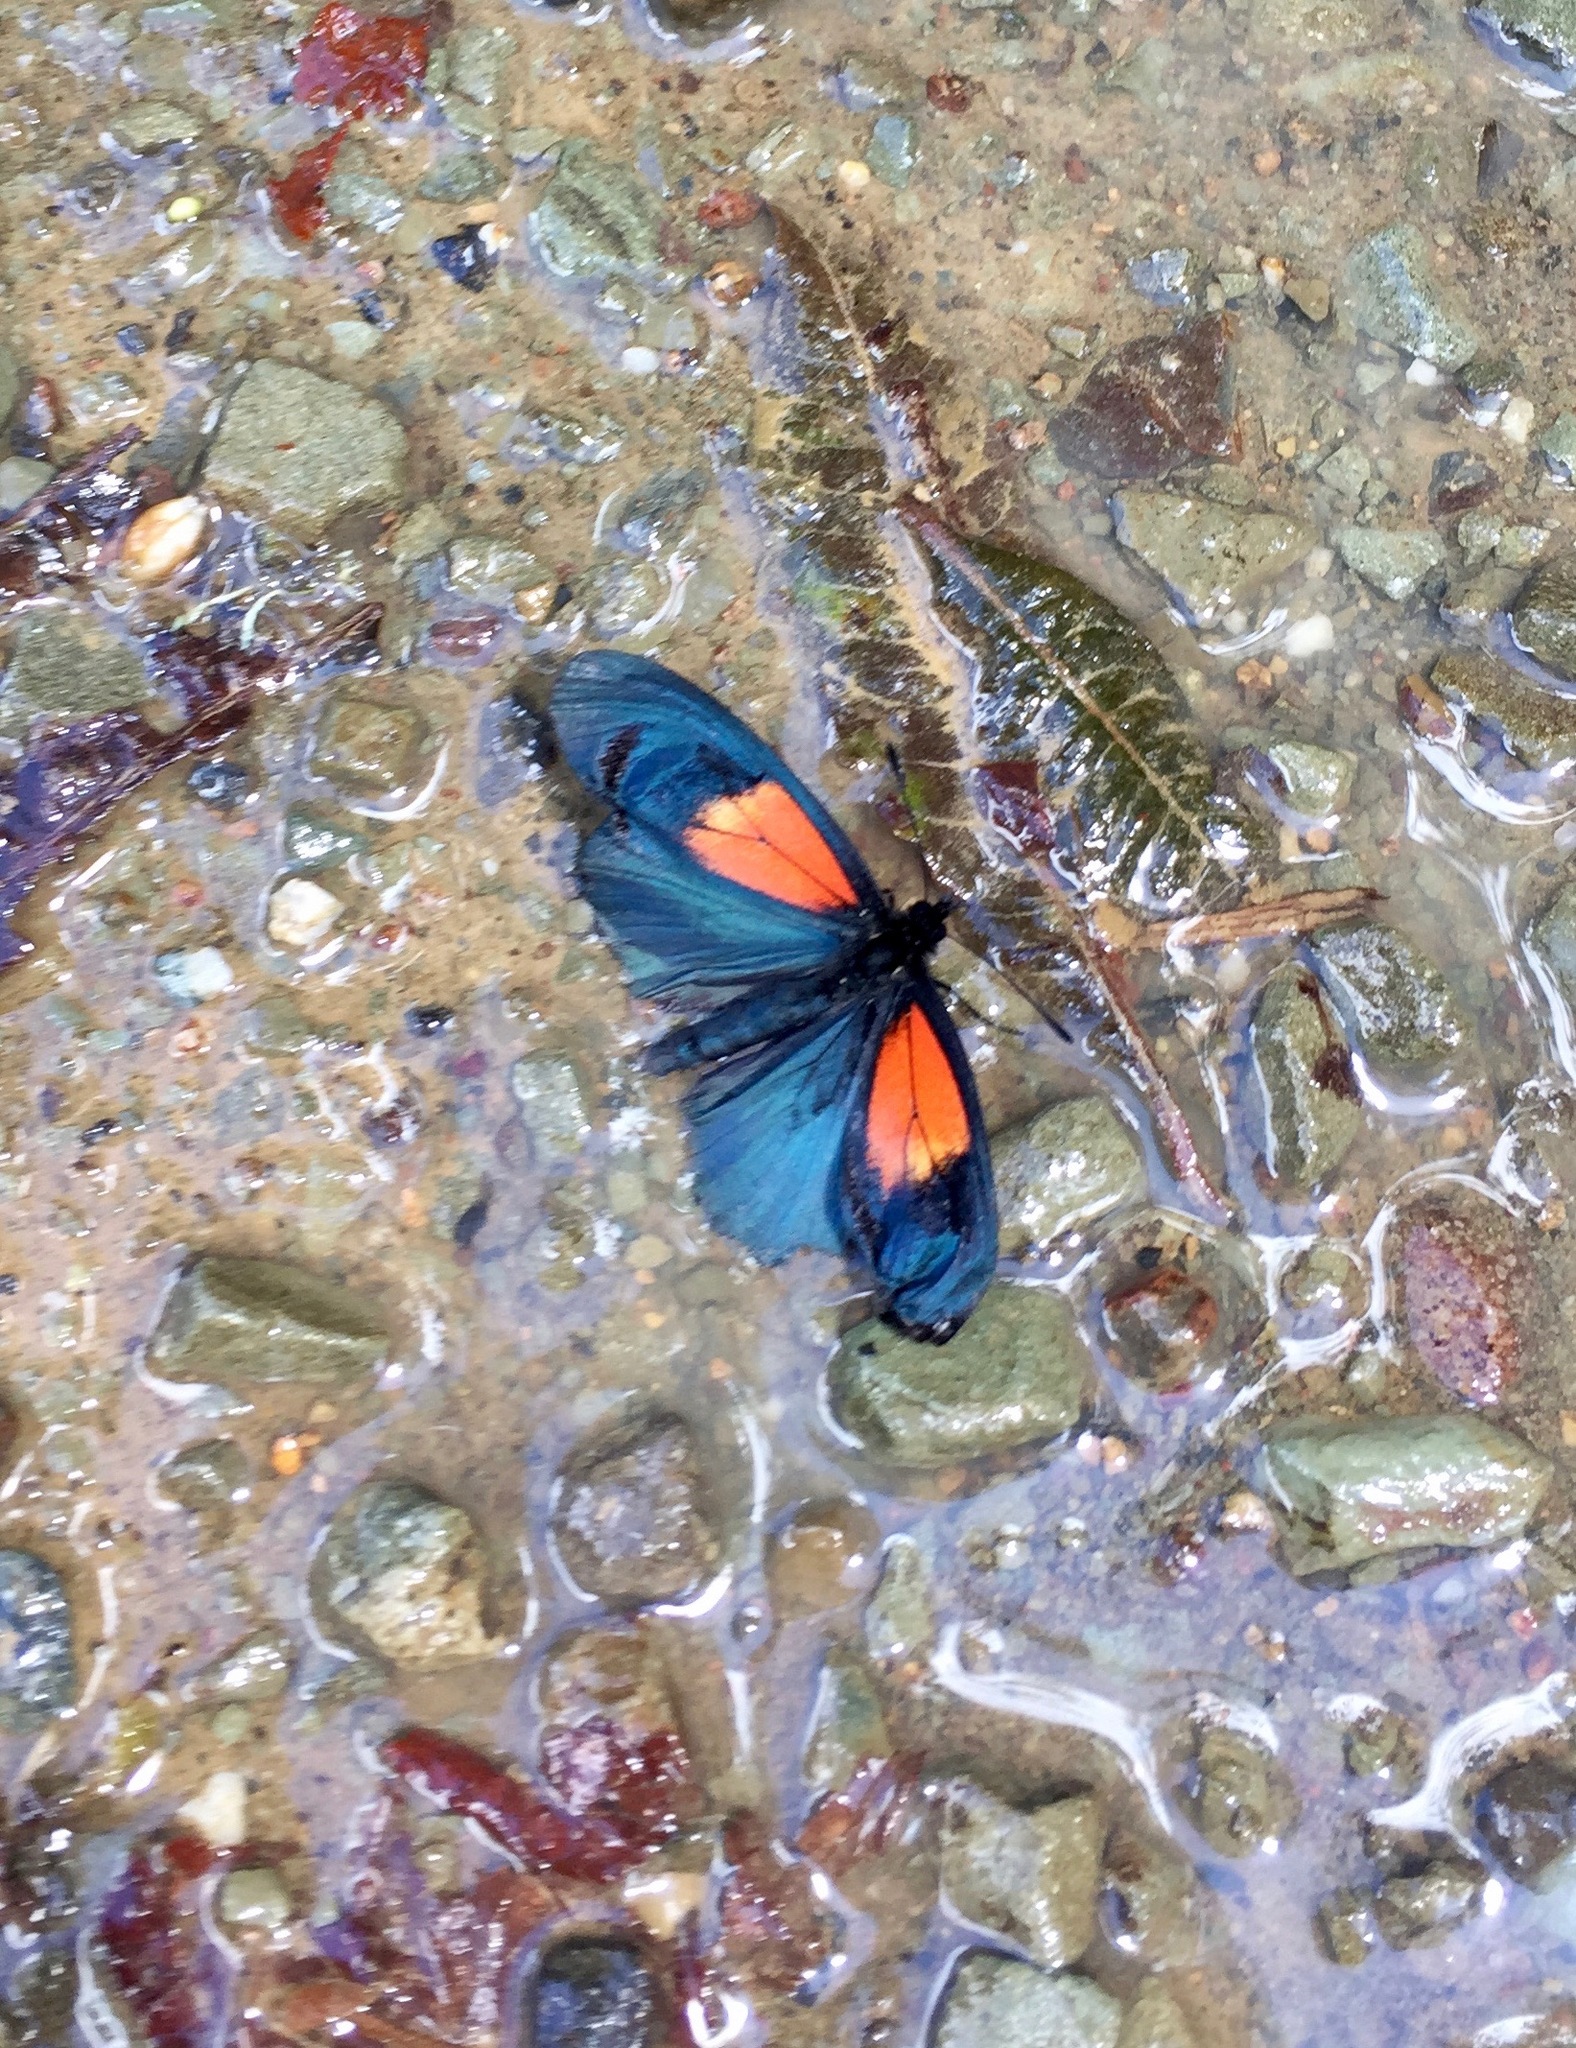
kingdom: Animalia
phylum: Arthropoda
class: Insecta
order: Lepidoptera
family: Nymphalidae
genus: Acraea
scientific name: Acraea Altinote ozomene
